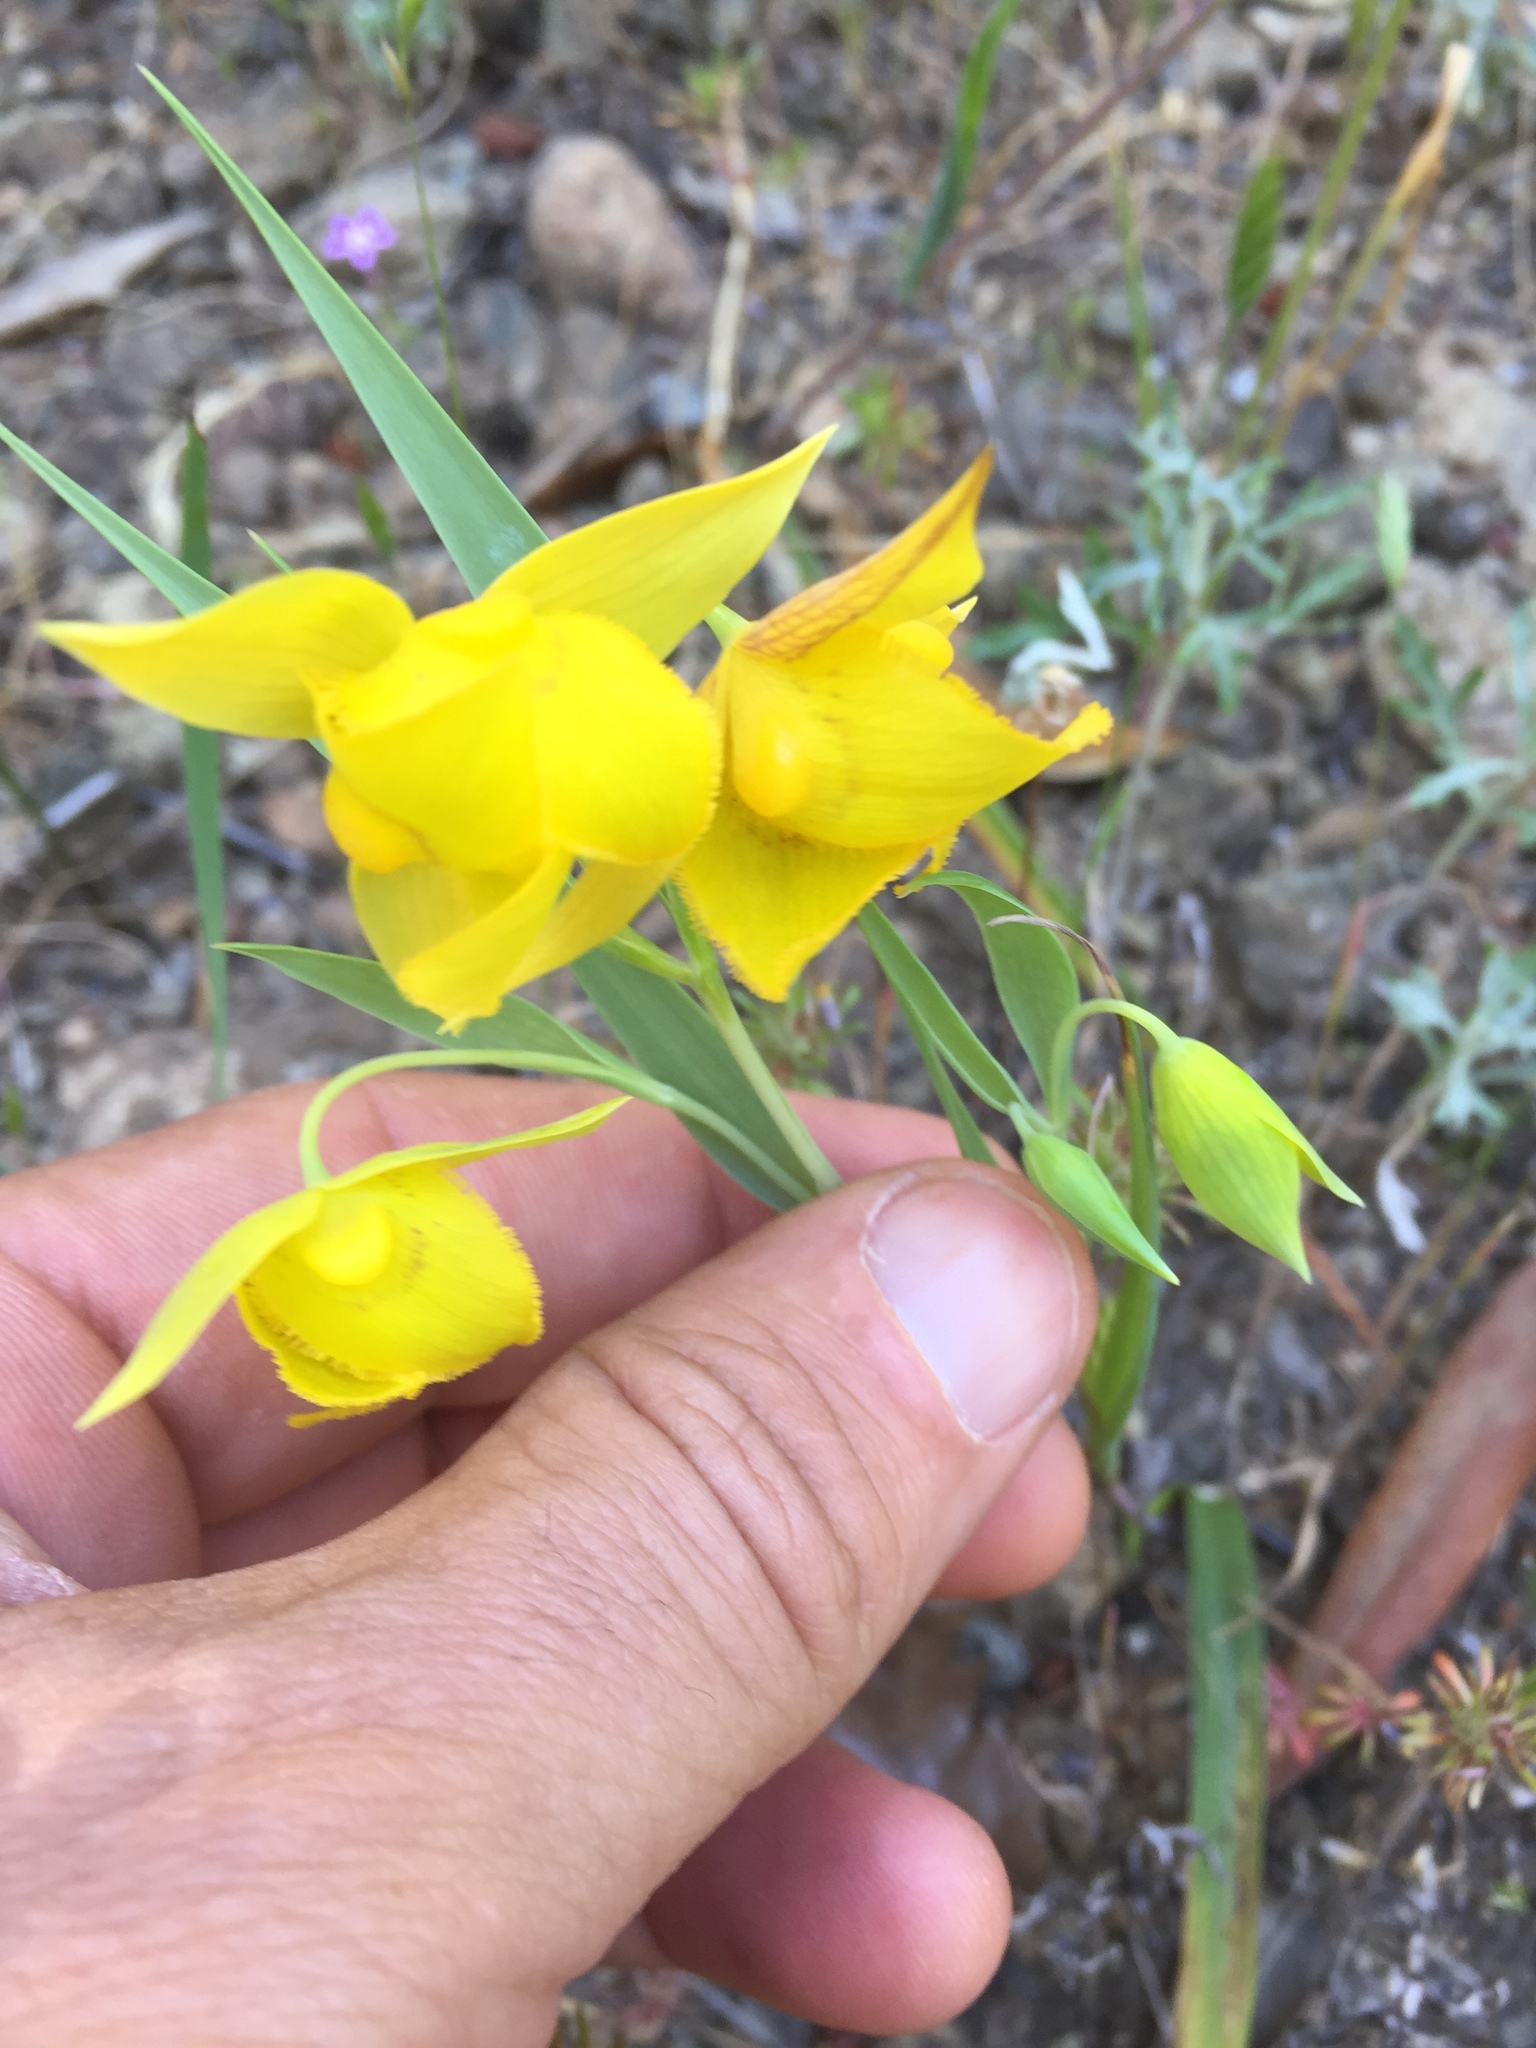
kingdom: Plantae
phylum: Tracheophyta
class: Liliopsida
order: Liliales
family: Liliaceae
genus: Calochortus
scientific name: Calochortus amabilis
